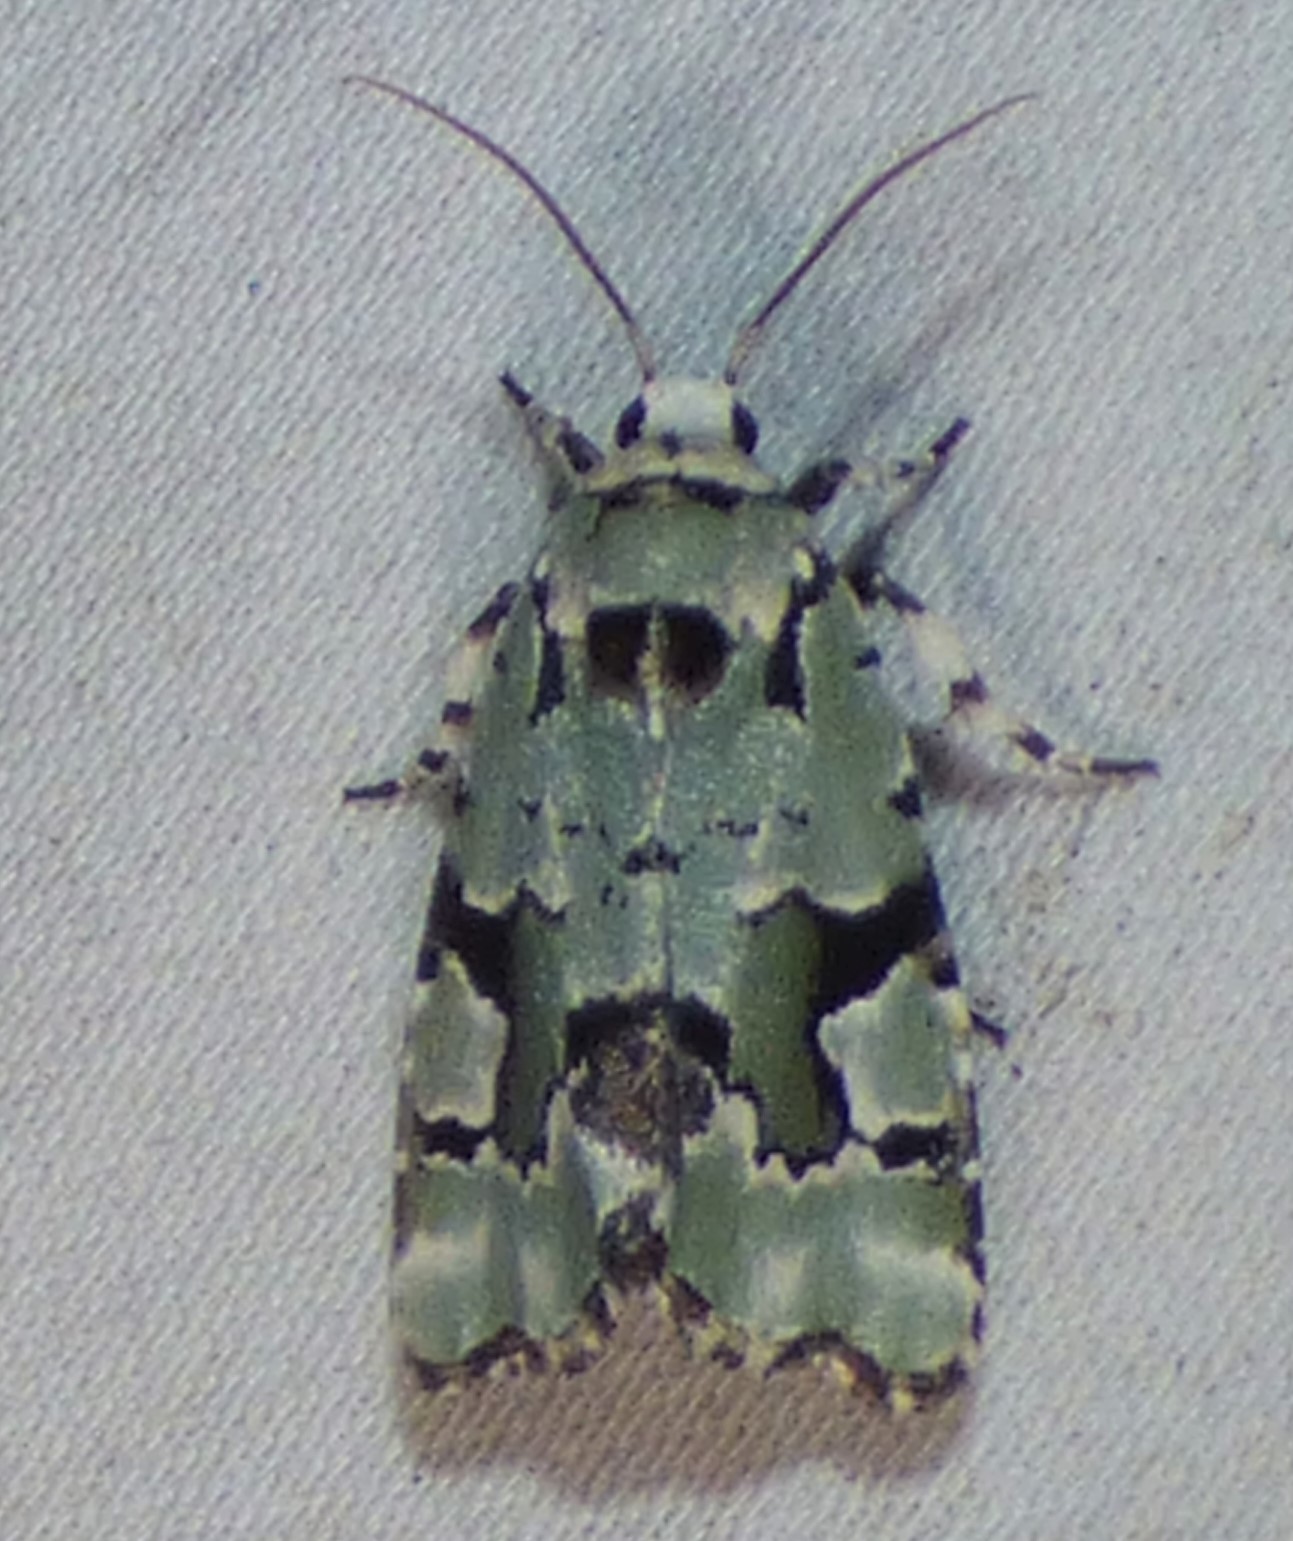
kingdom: Animalia
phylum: Arthropoda
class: Insecta
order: Lepidoptera
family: Noctuidae
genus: Emarginea
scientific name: Emarginea percara
